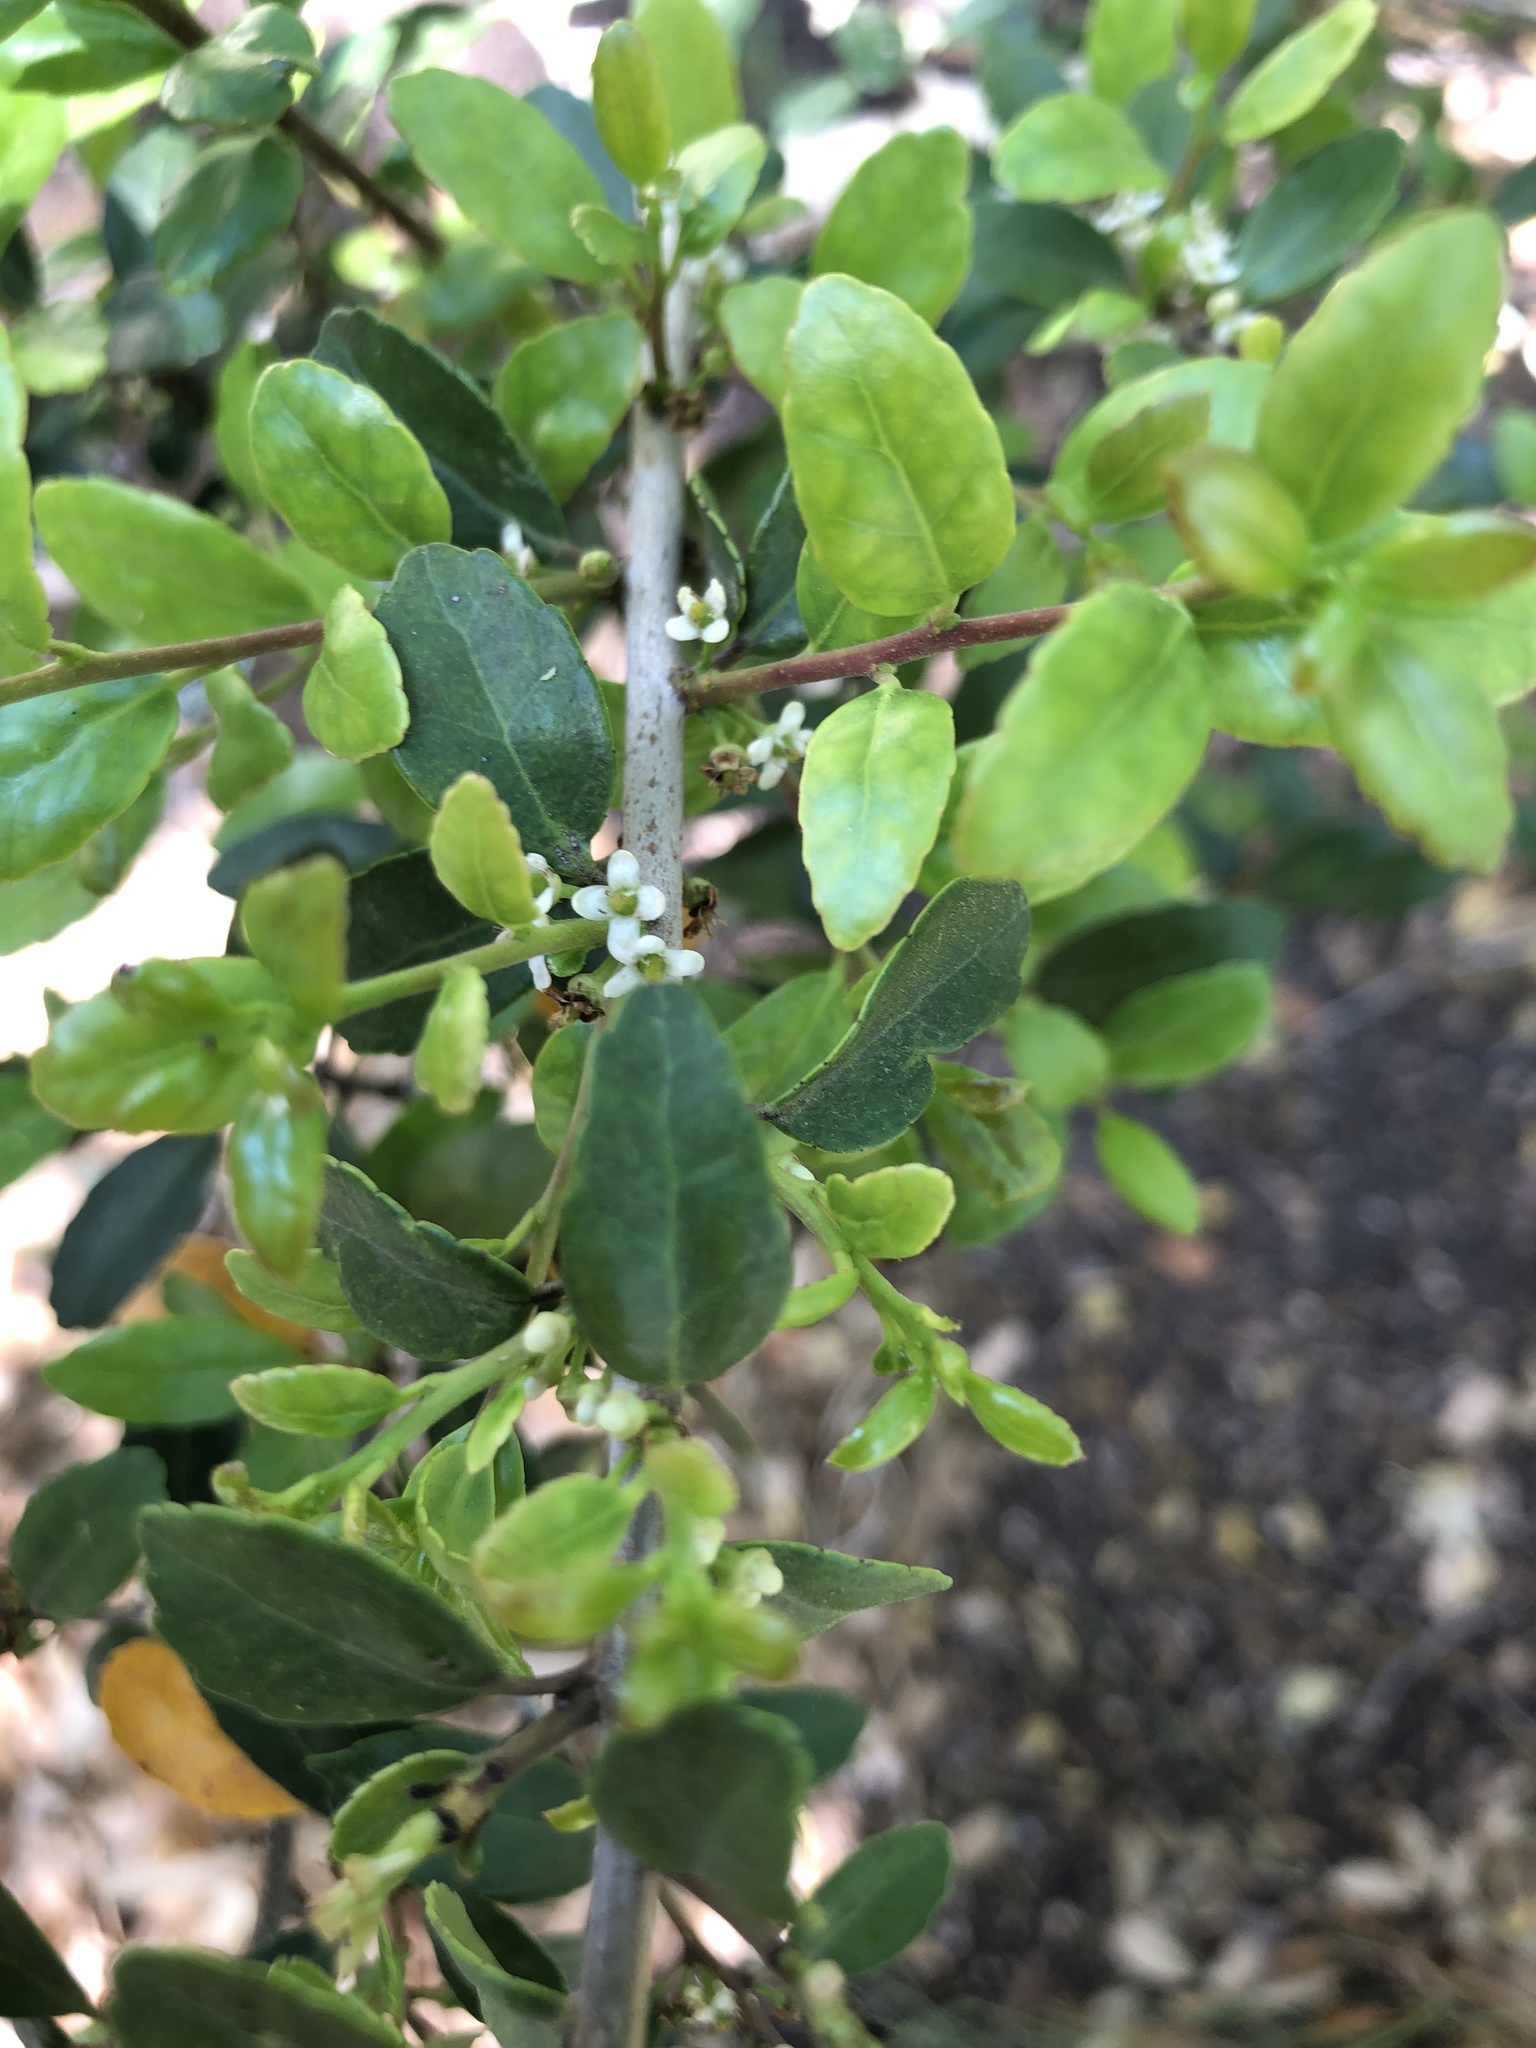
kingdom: Plantae
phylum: Tracheophyta
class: Magnoliopsida
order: Aquifoliales
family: Aquifoliaceae
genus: Ilex
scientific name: Ilex vomitoria
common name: Yaupon holly
